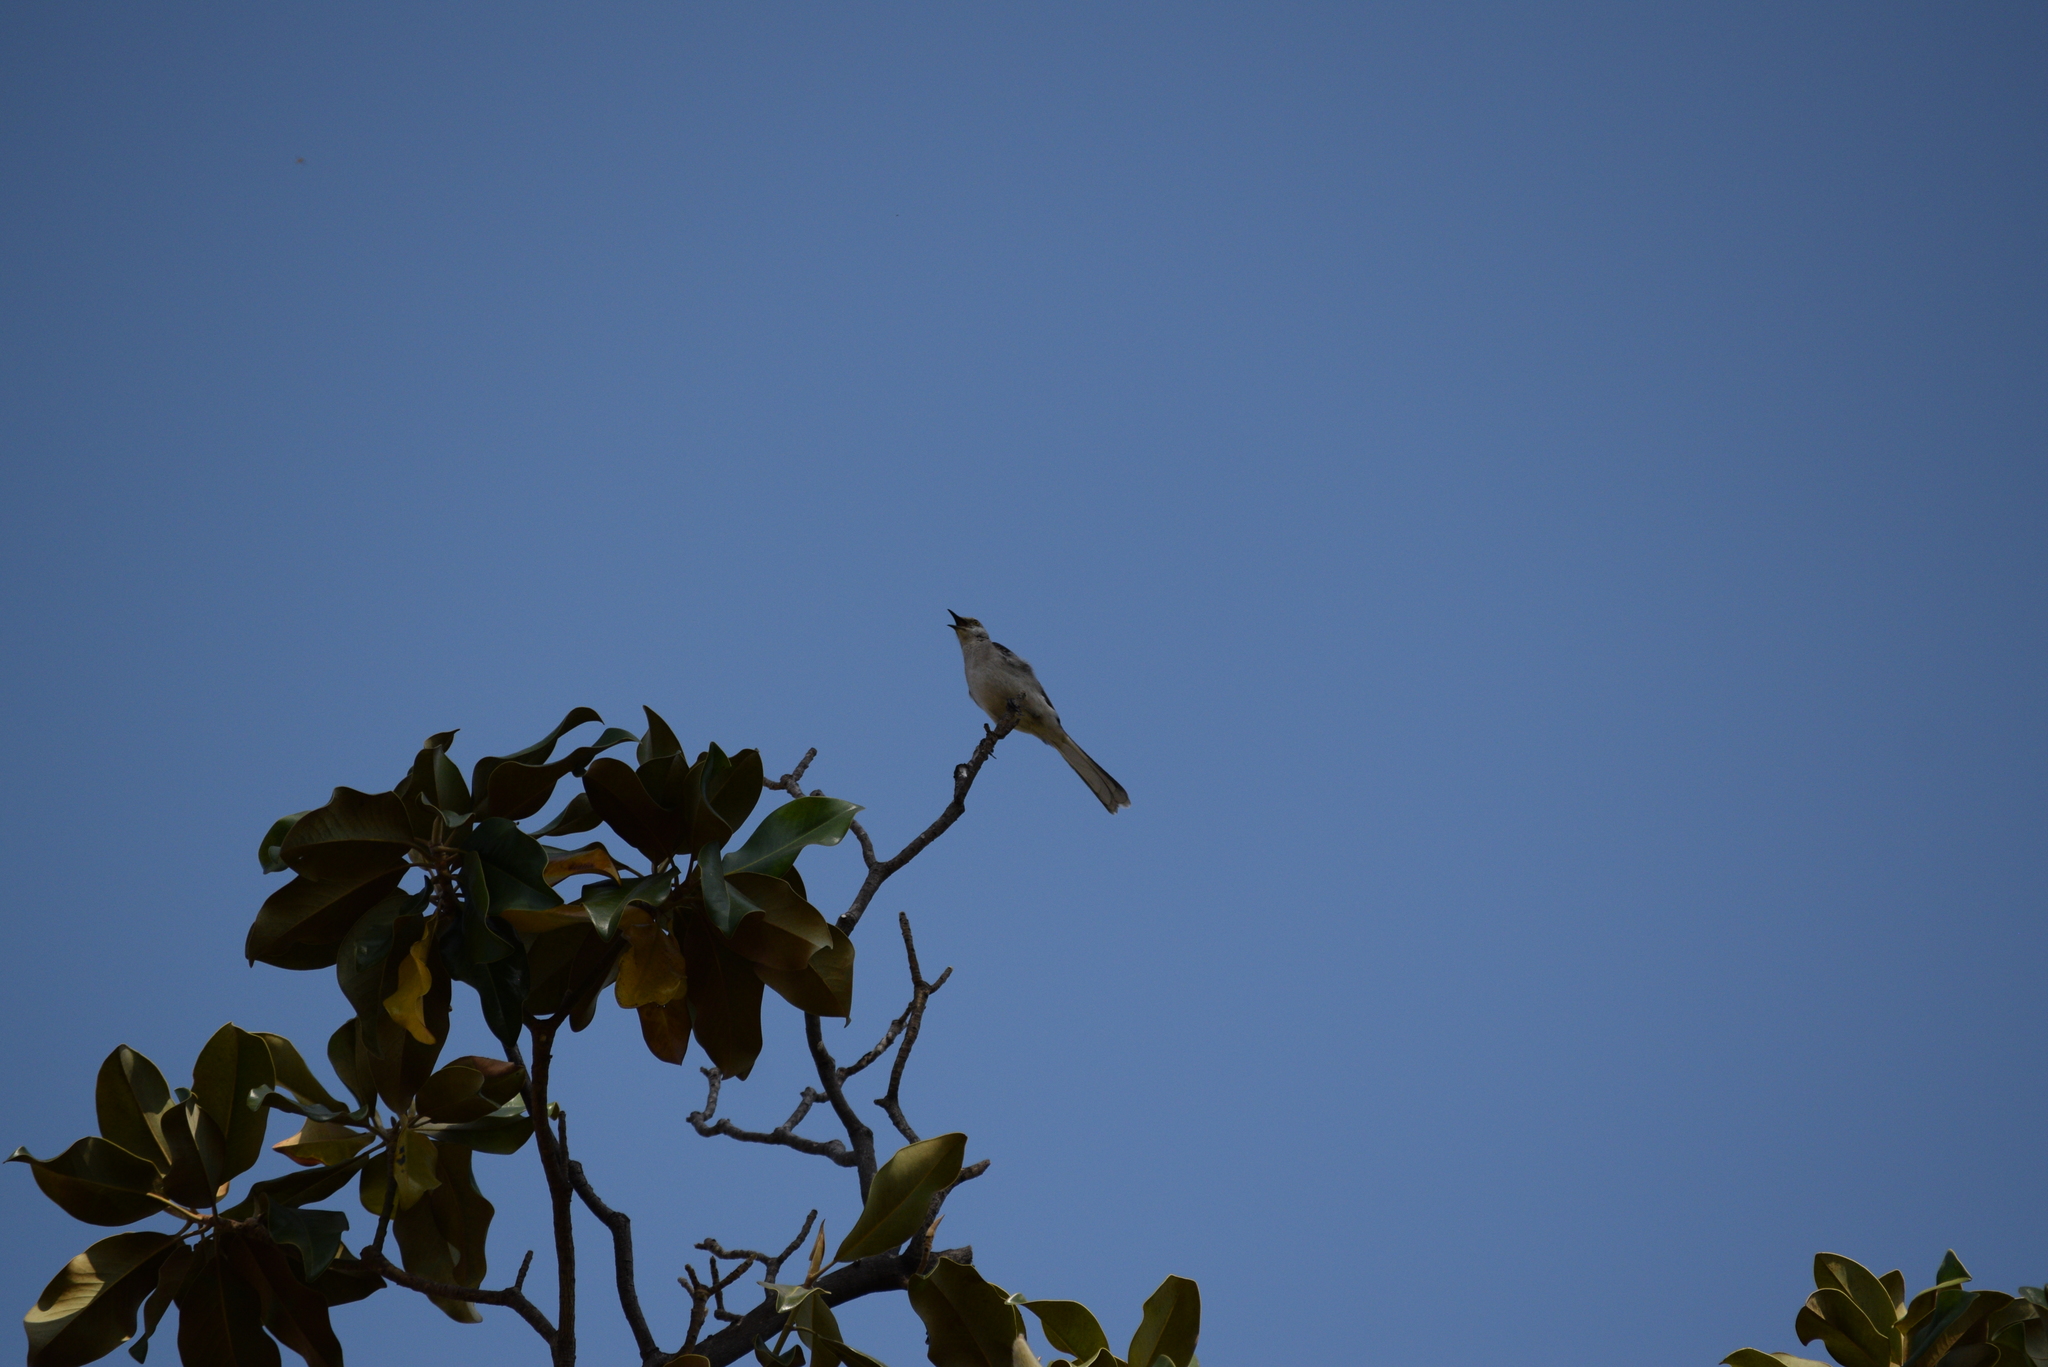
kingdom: Animalia
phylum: Chordata
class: Aves
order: Passeriformes
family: Mimidae
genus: Mimus
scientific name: Mimus polyglottos
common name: Northern mockingbird
